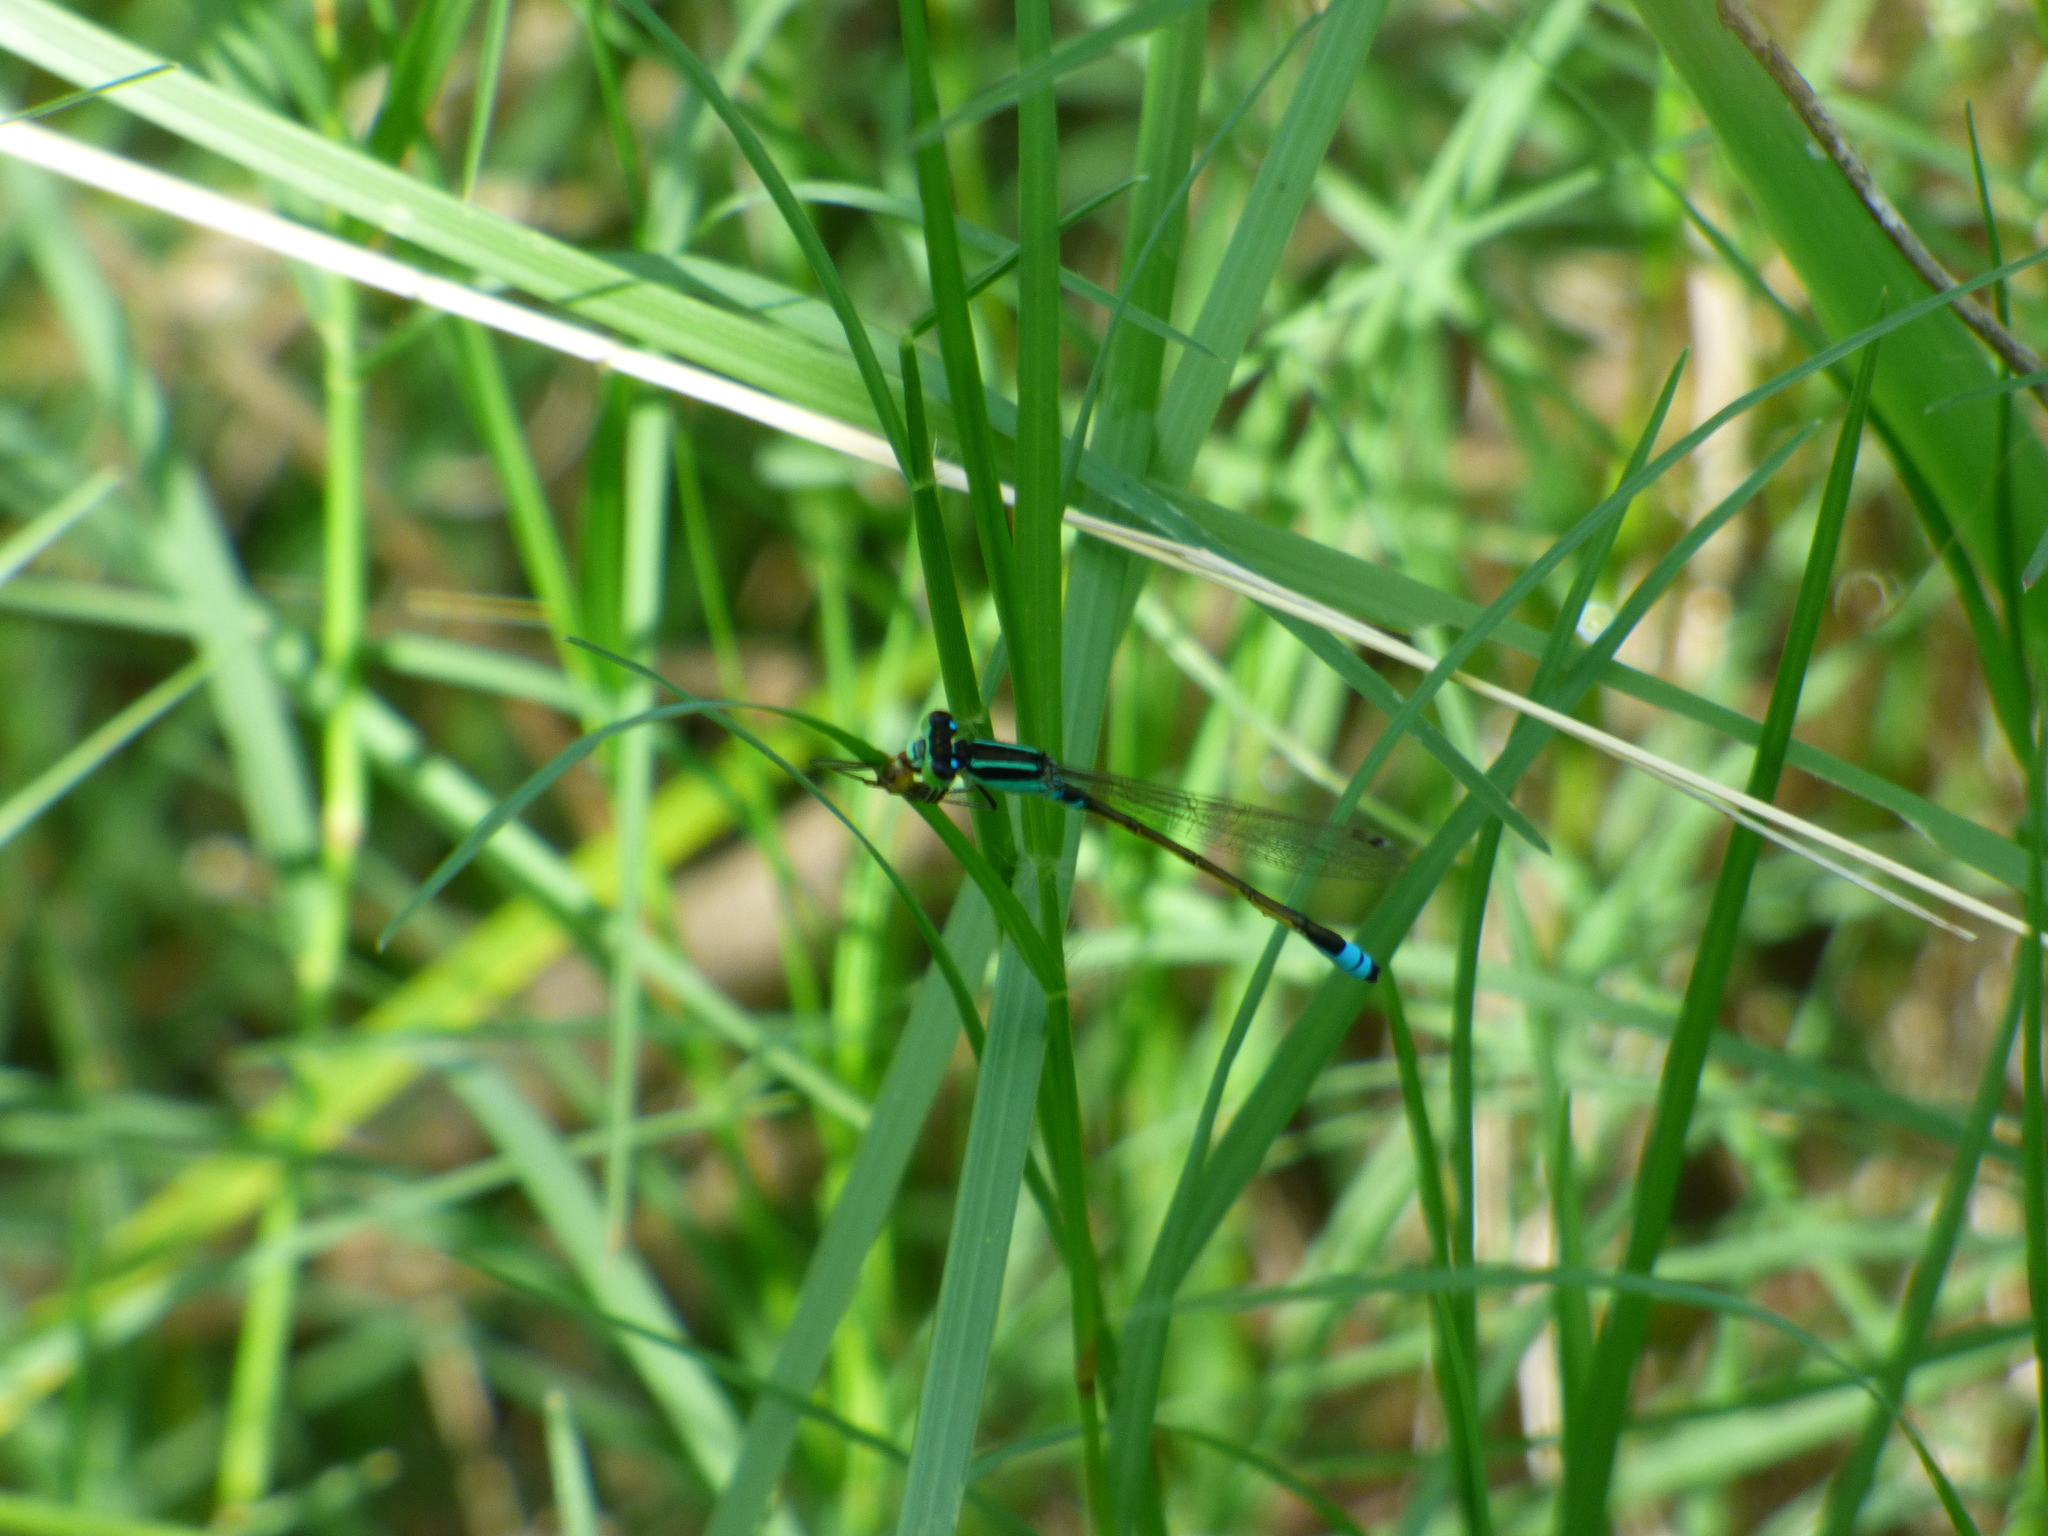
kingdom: Animalia
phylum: Arthropoda
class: Insecta
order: Odonata
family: Coenagrionidae
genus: Ischnura
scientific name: Ischnura fluviatilis
